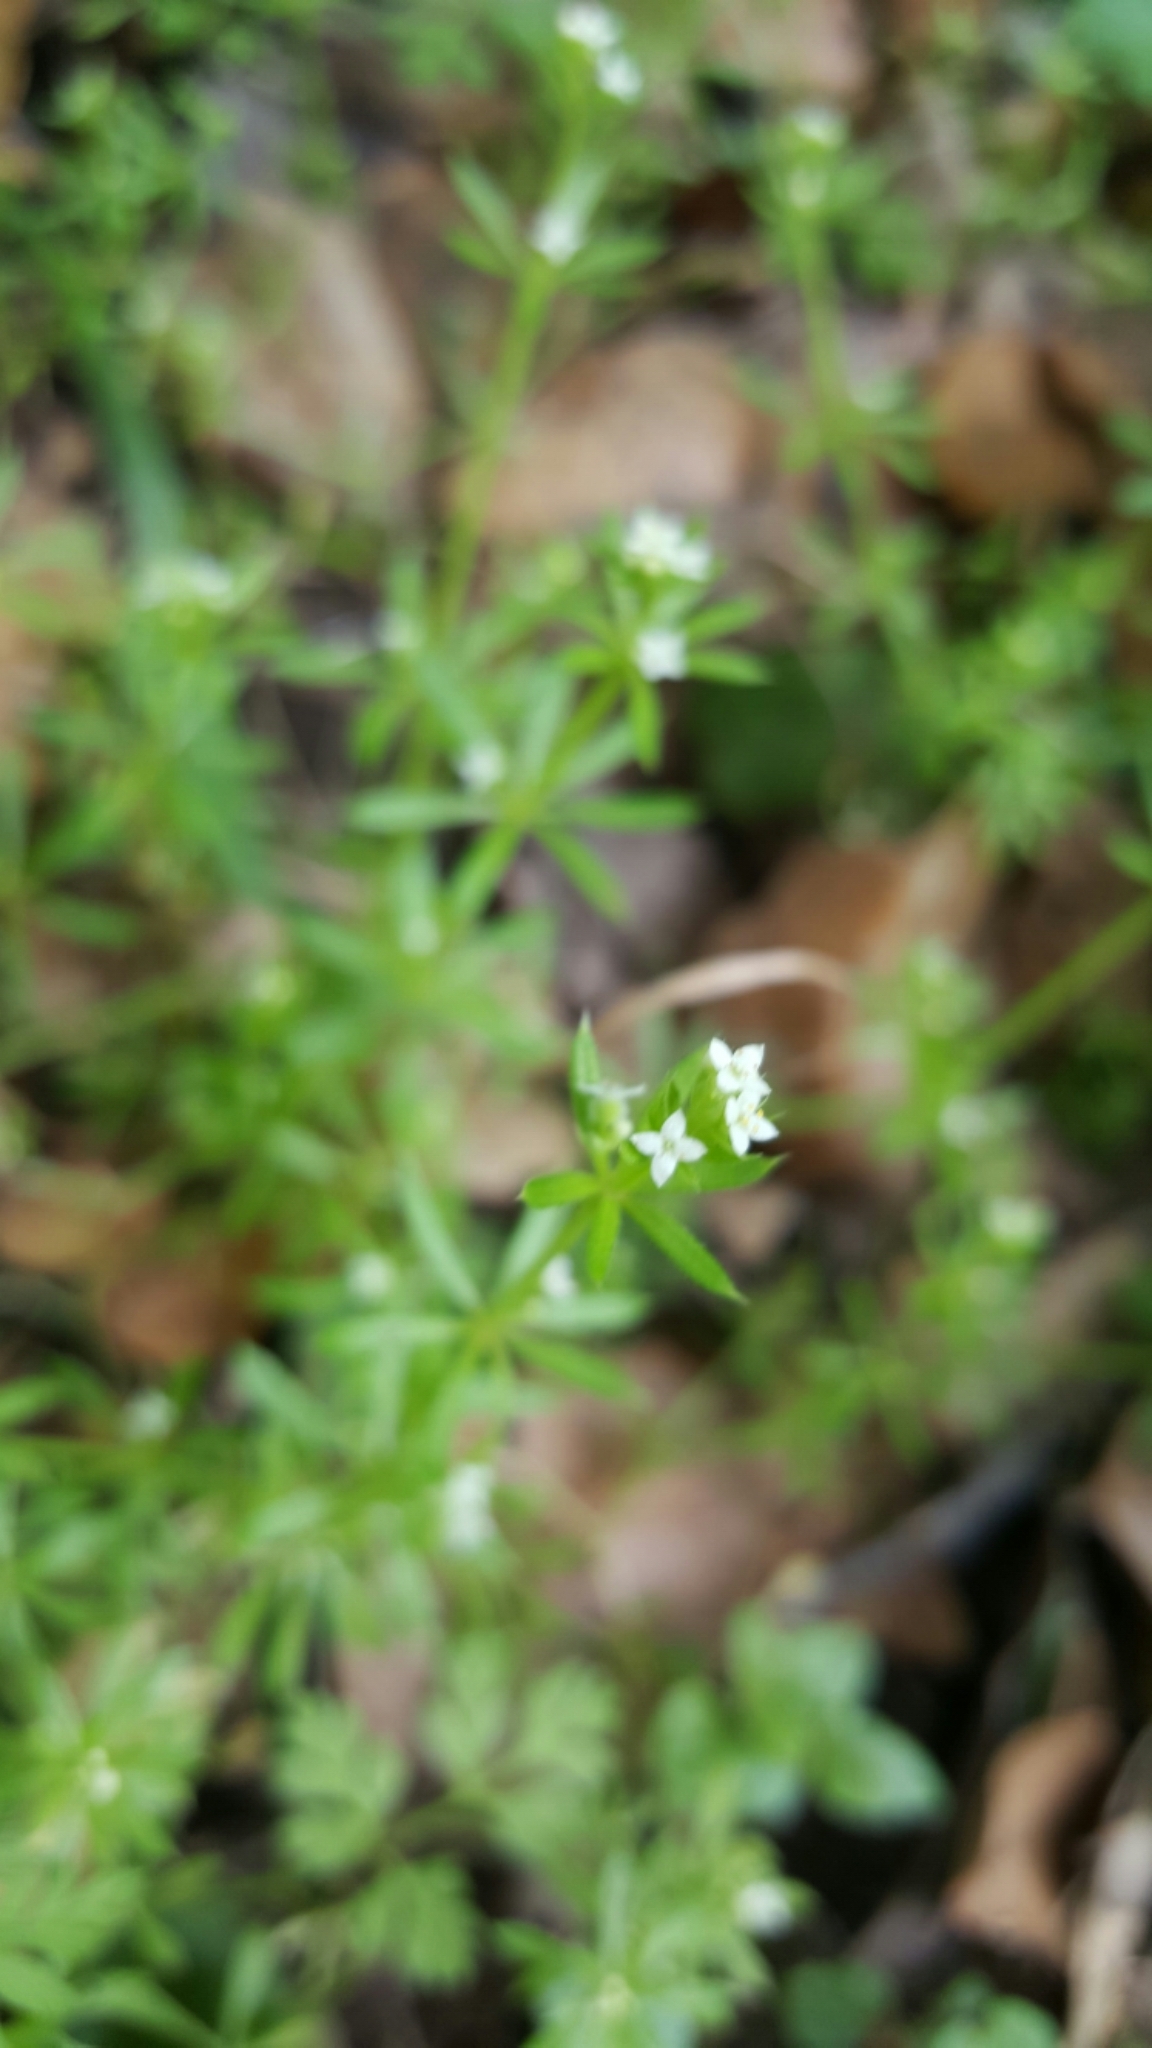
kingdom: Plantae
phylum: Tracheophyta
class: Magnoliopsida
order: Gentianales
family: Rubiaceae
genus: Galium
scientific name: Galium aparine
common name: Cleavers
